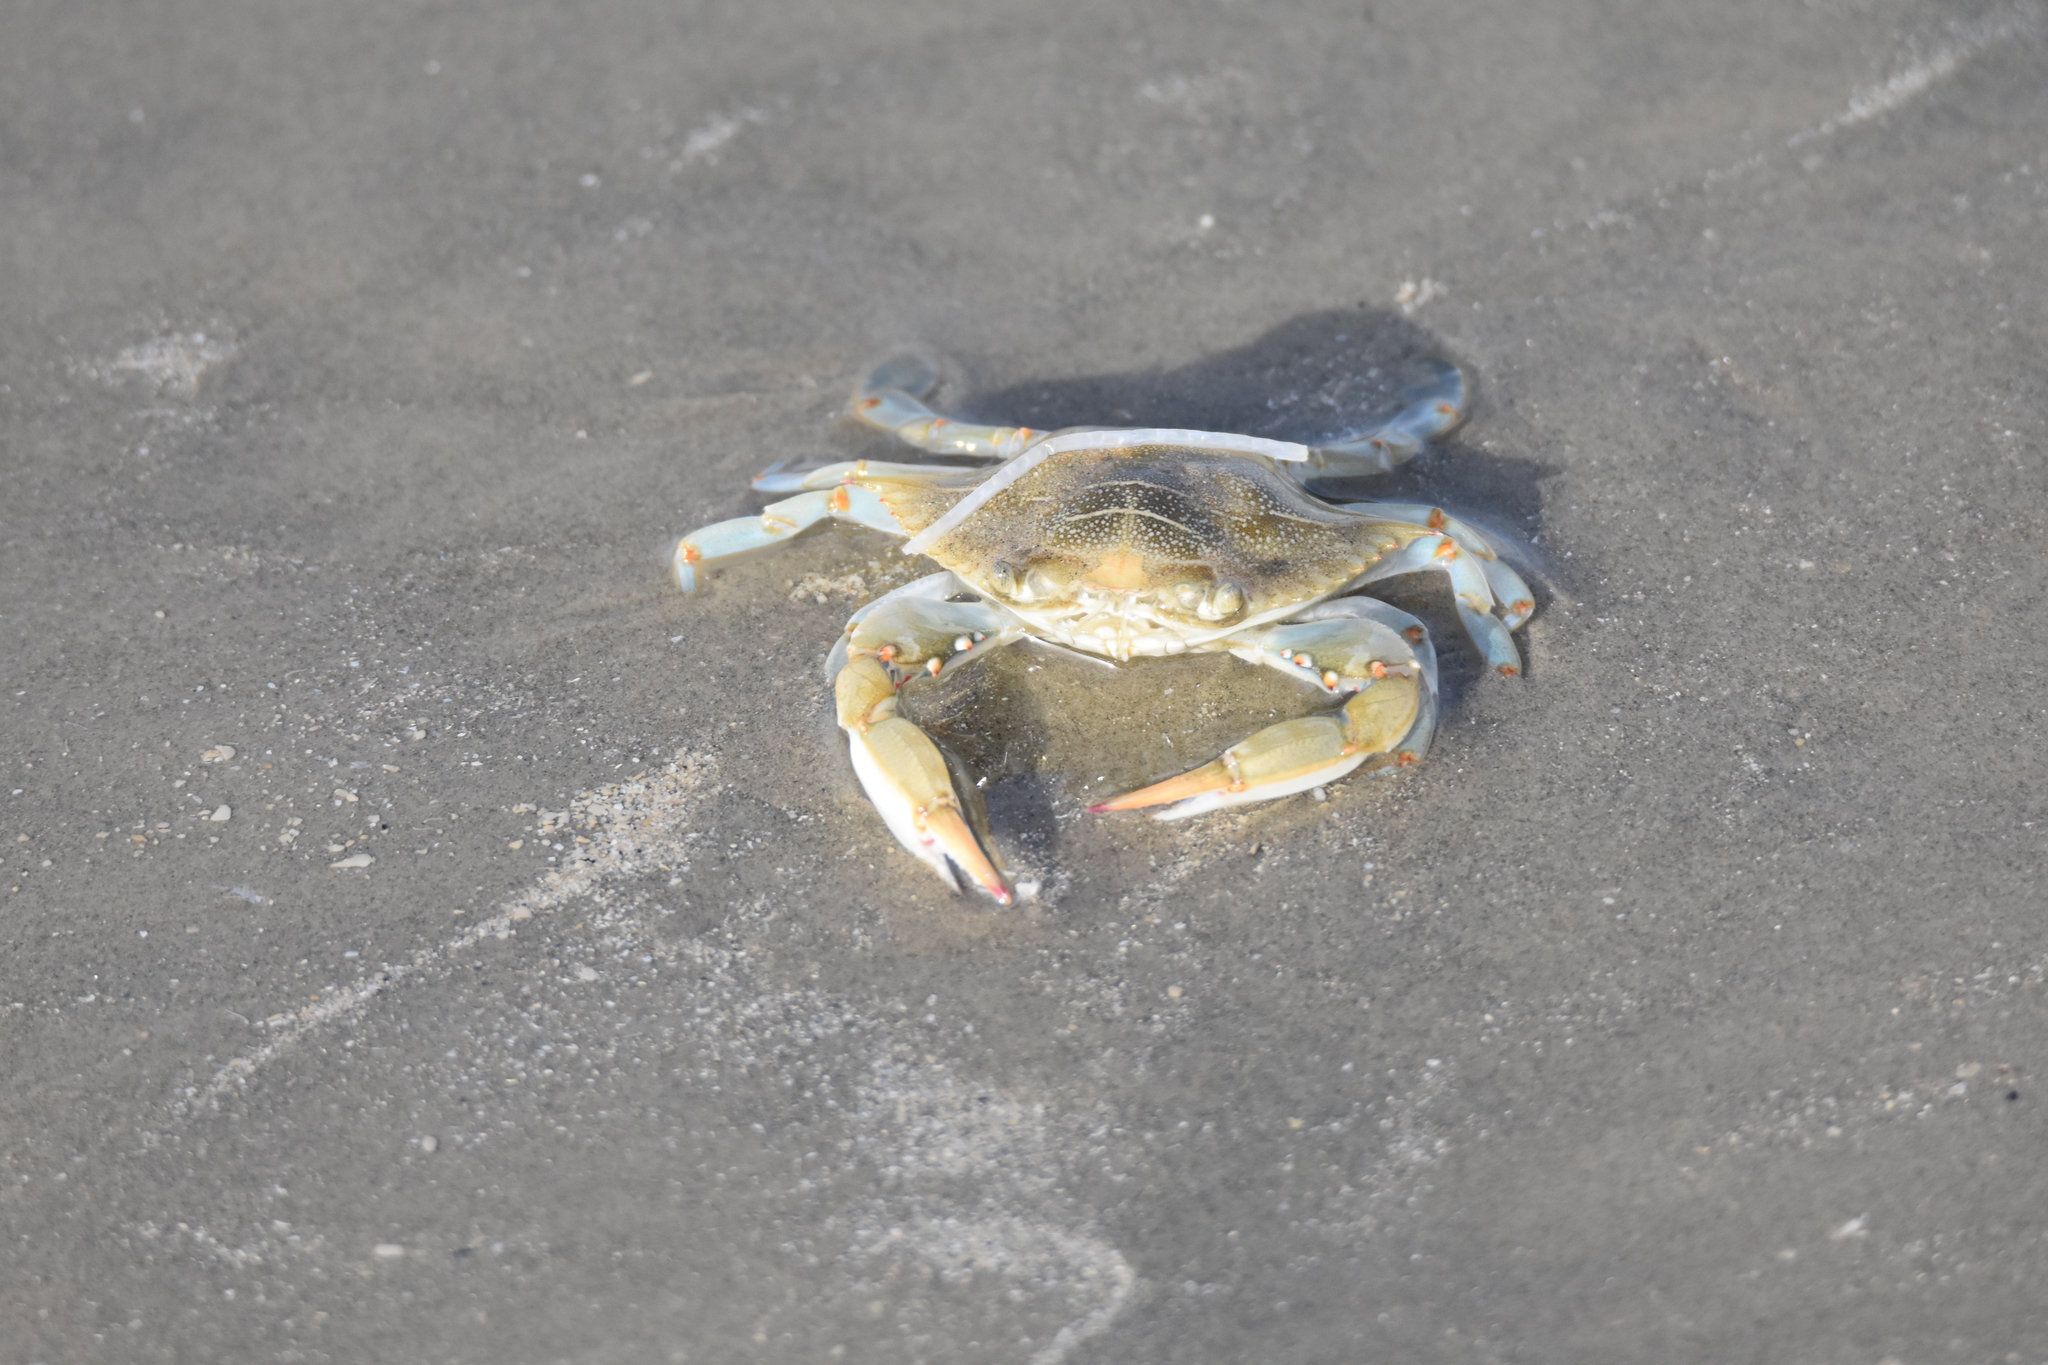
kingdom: Animalia
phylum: Arthropoda
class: Malacostraca
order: Decapoda
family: Portunidae
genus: Callinectes
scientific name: Callinectes sapidus
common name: Blue crab
